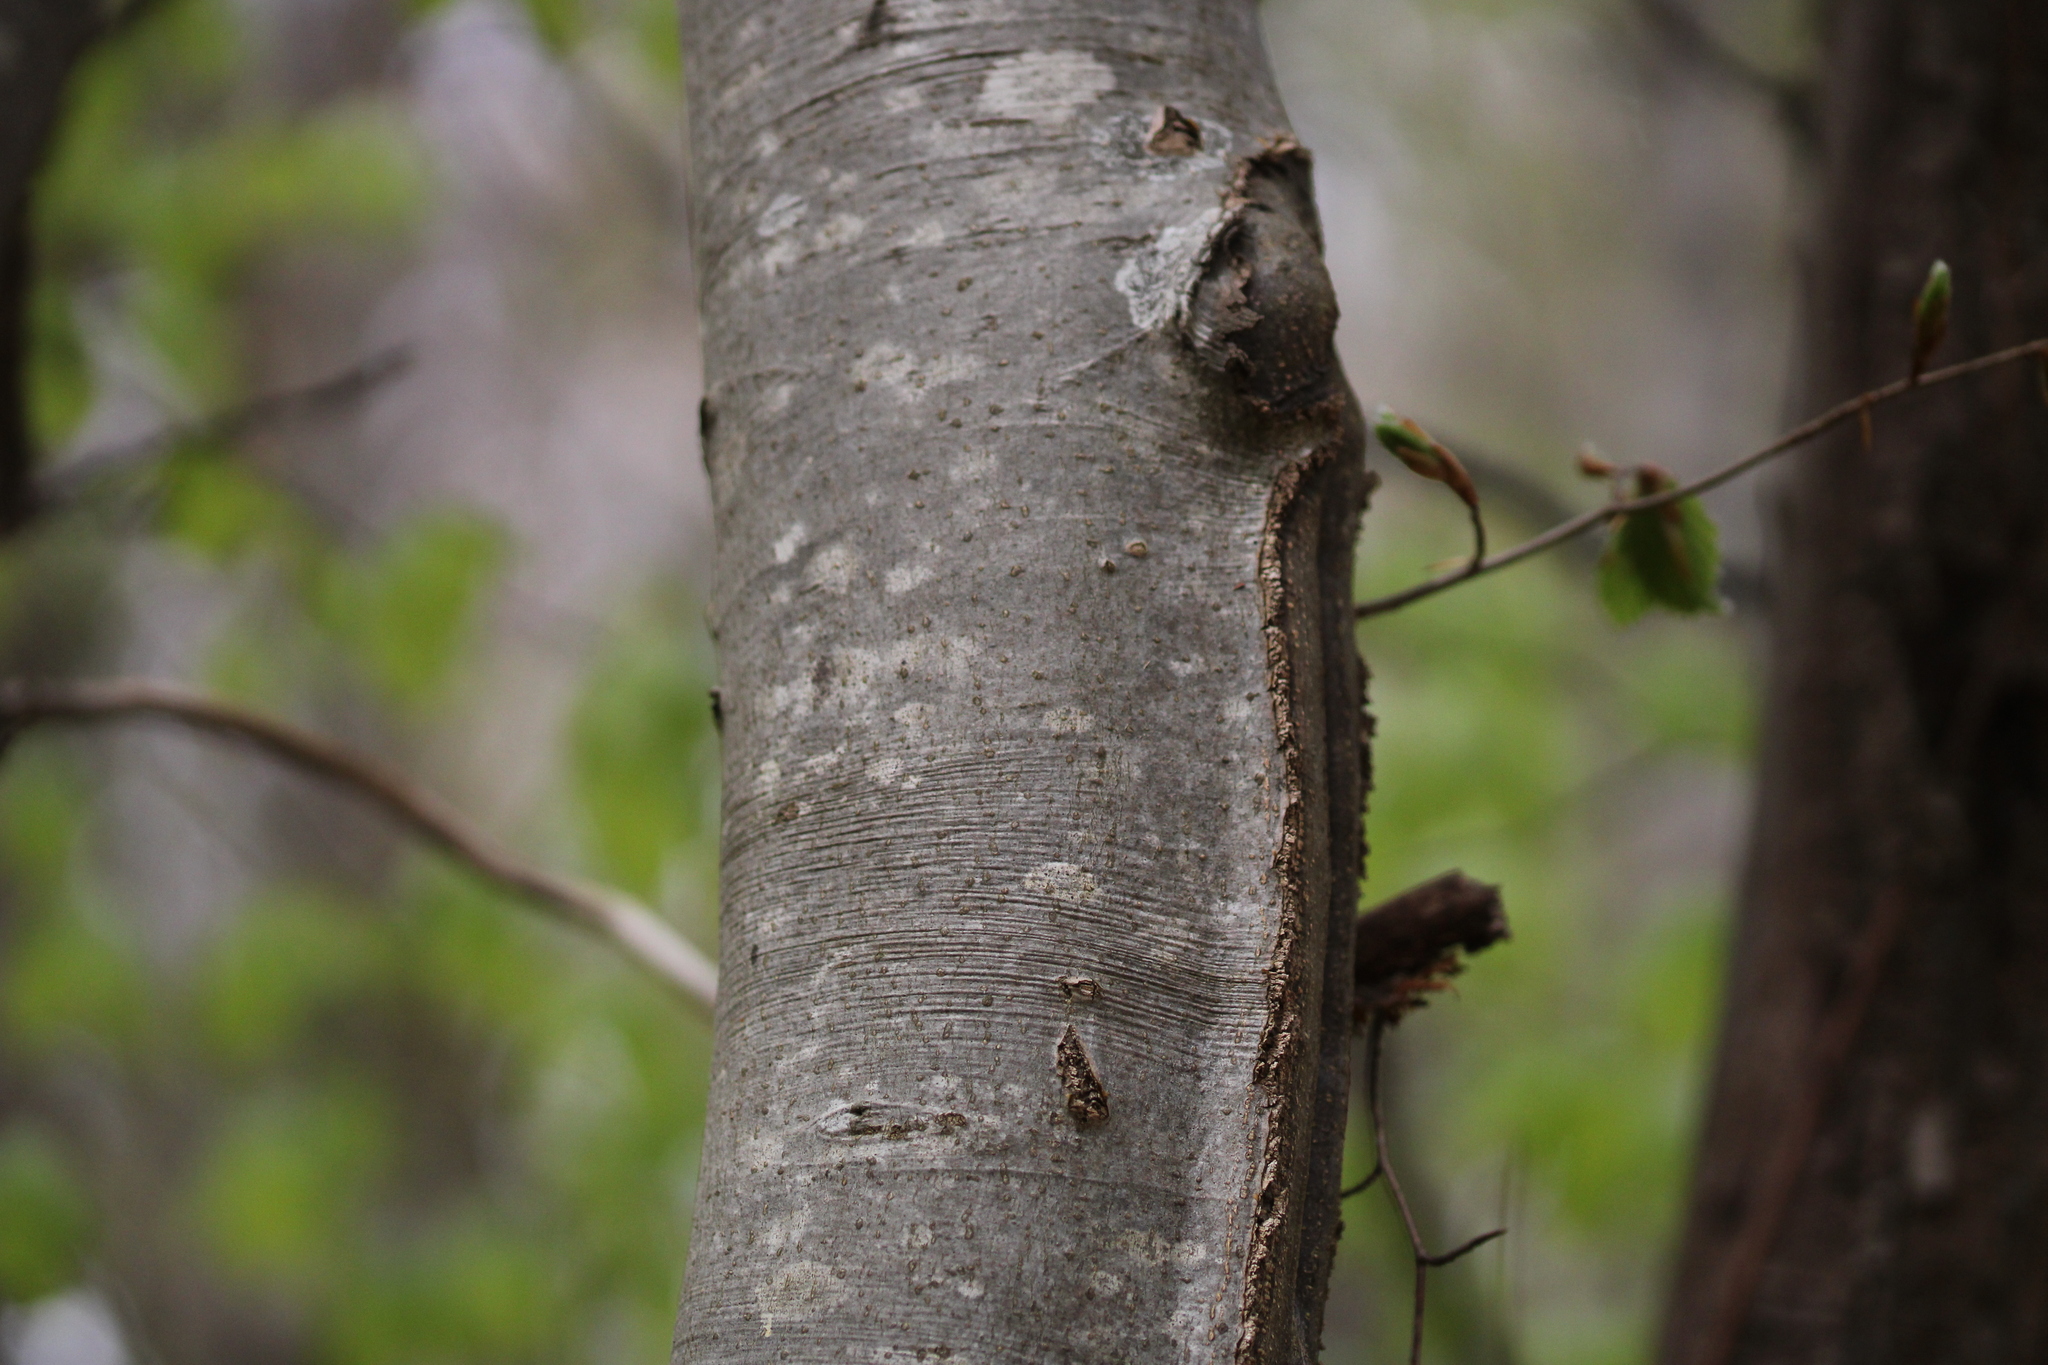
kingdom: Plantae
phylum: Tracheophyta
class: Magnoliopsida
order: Fagales
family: Fagaceae
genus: Fagus
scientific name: Fagus sylvatica
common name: Beech
